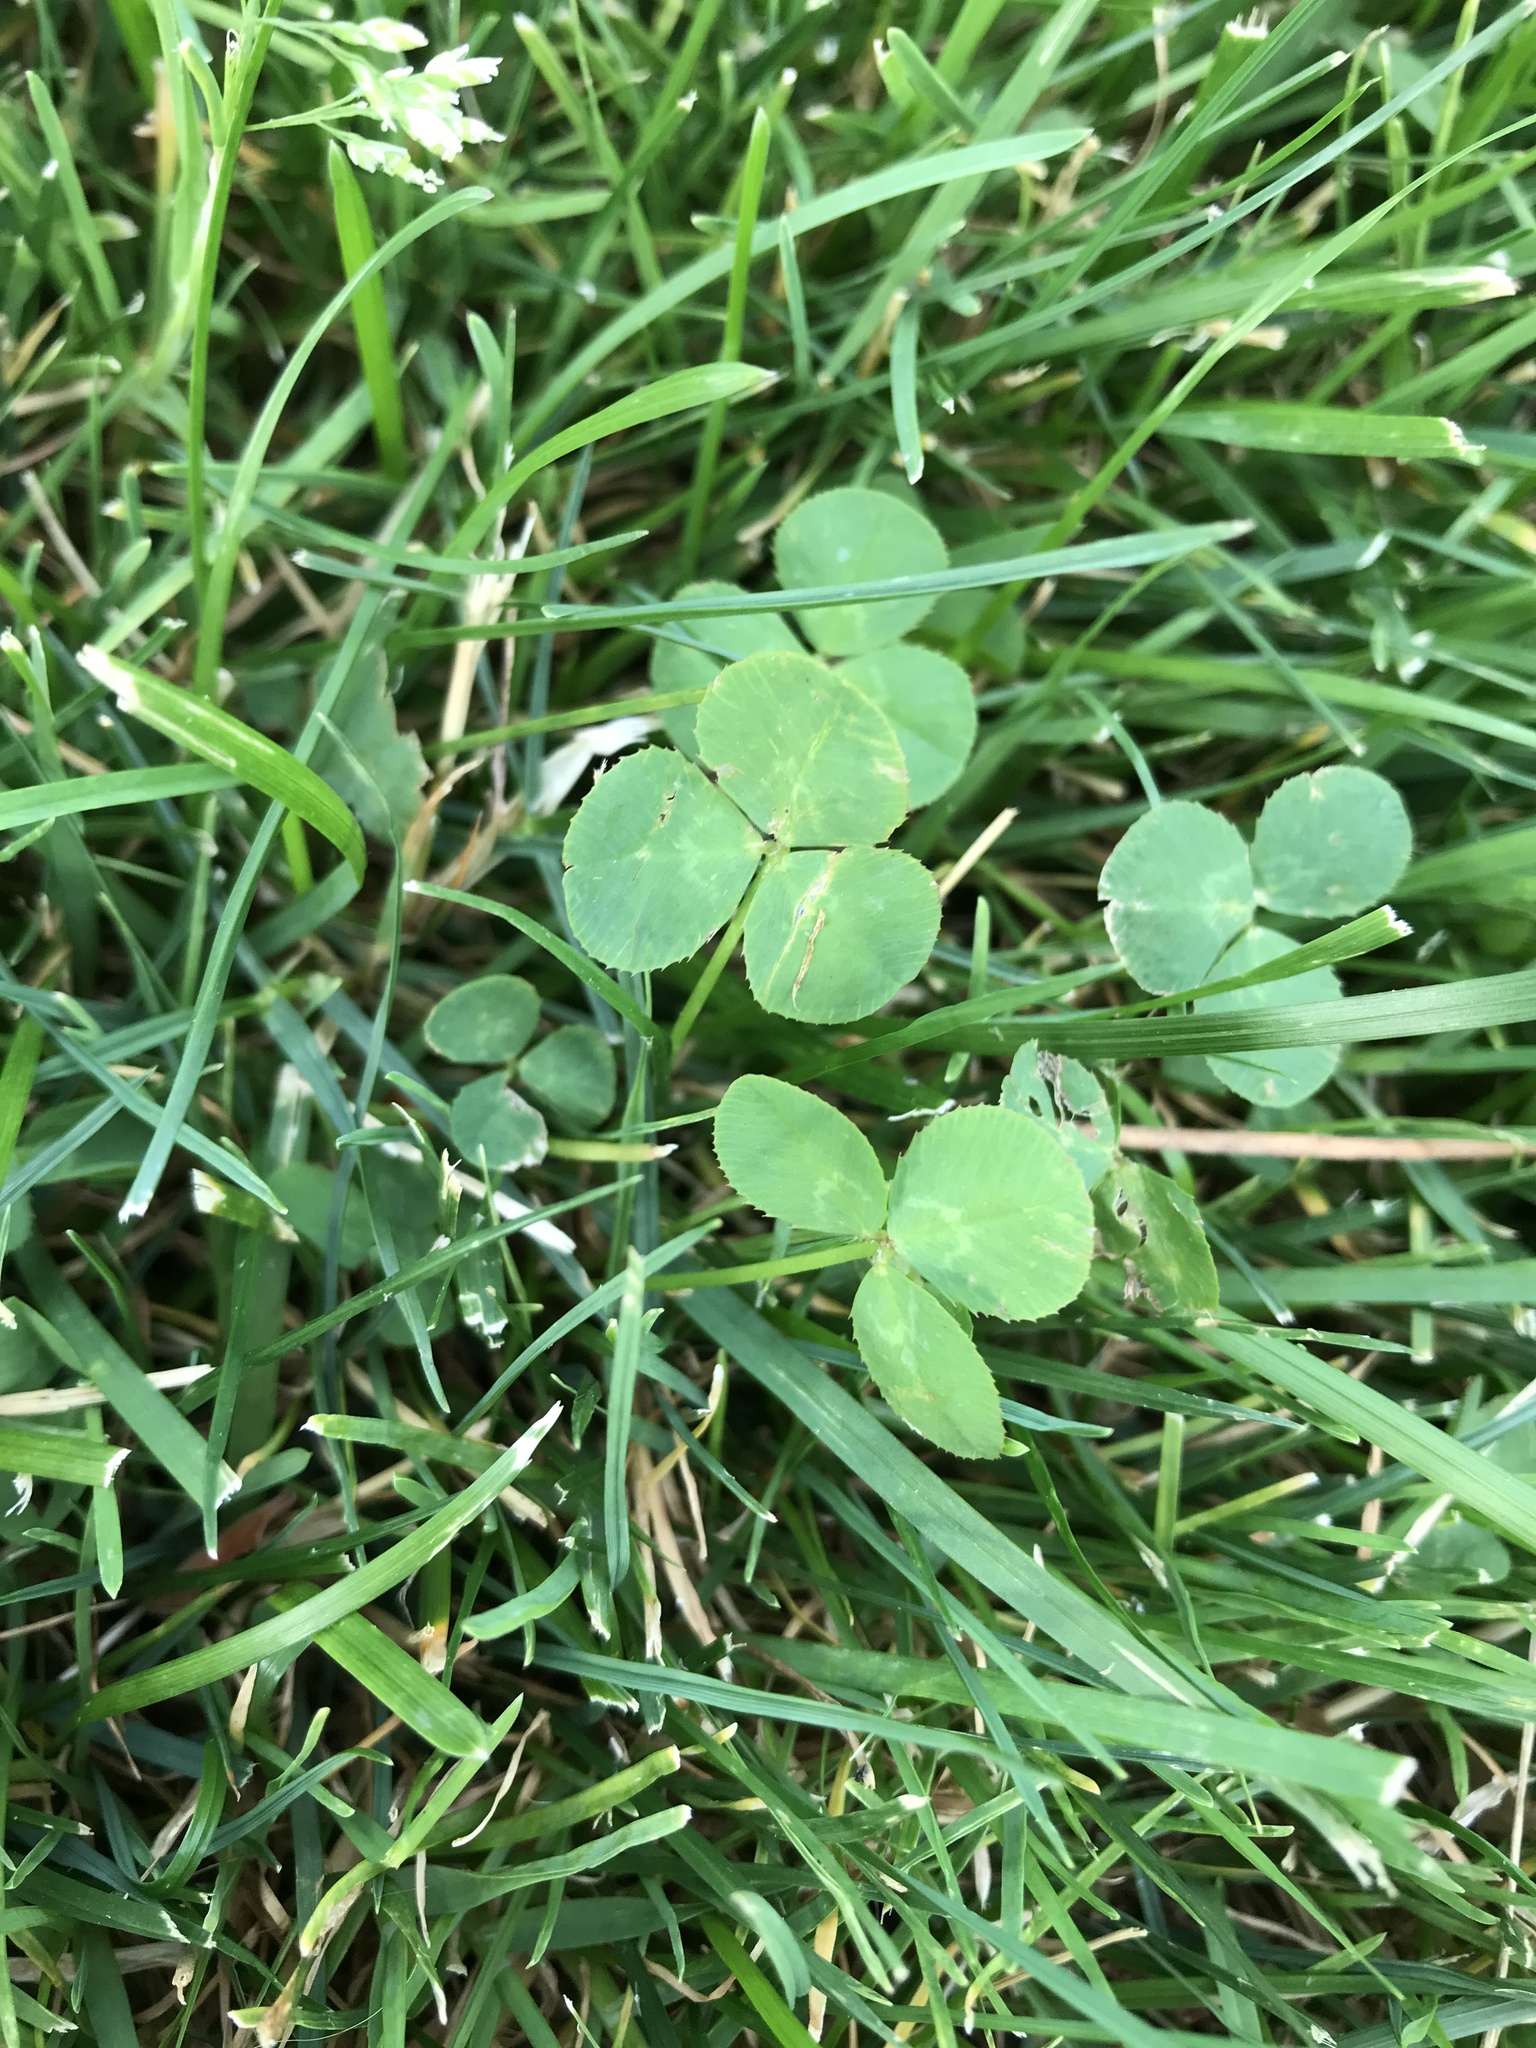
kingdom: Plantae
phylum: Tracheophyta
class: Magnoliopsida
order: Fabales
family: Fabaceae
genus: Trifolium
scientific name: Trifolium repens
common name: White clover
